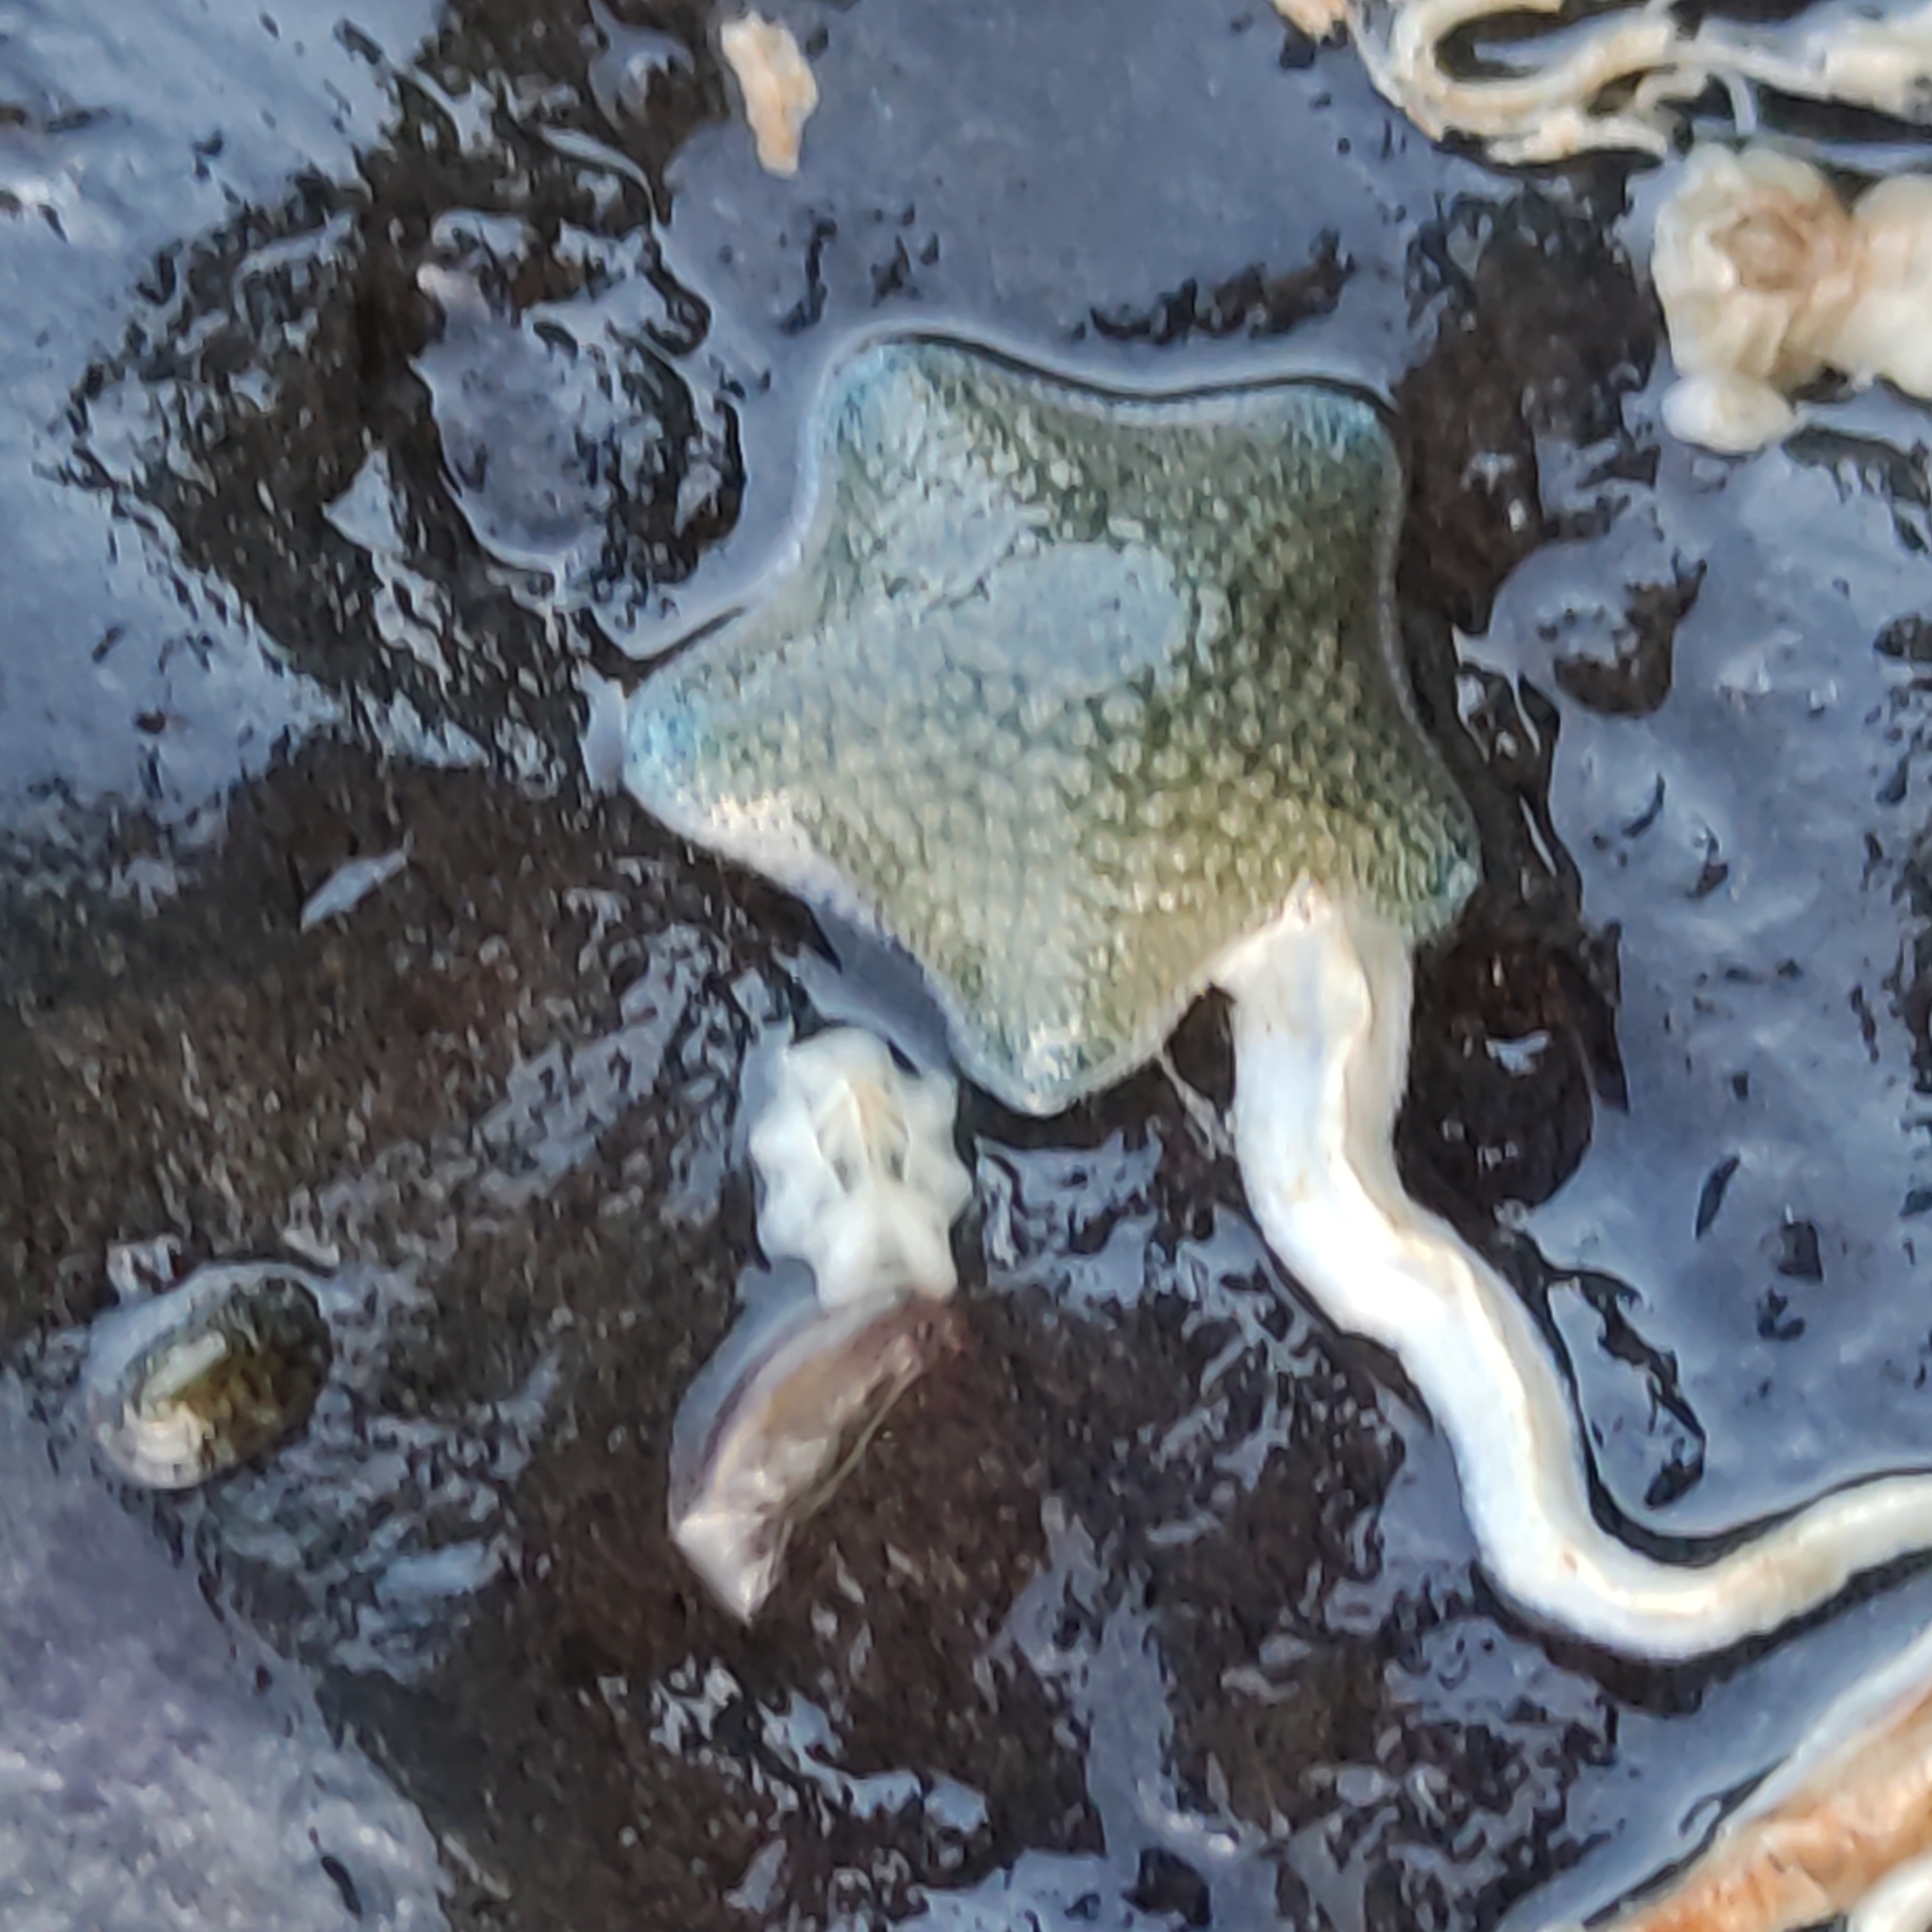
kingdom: Animalia
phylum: Echinodermata
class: Asteroidea
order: Valvatida
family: Asterinidae
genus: Patiriella
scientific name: Patiriella regularis
